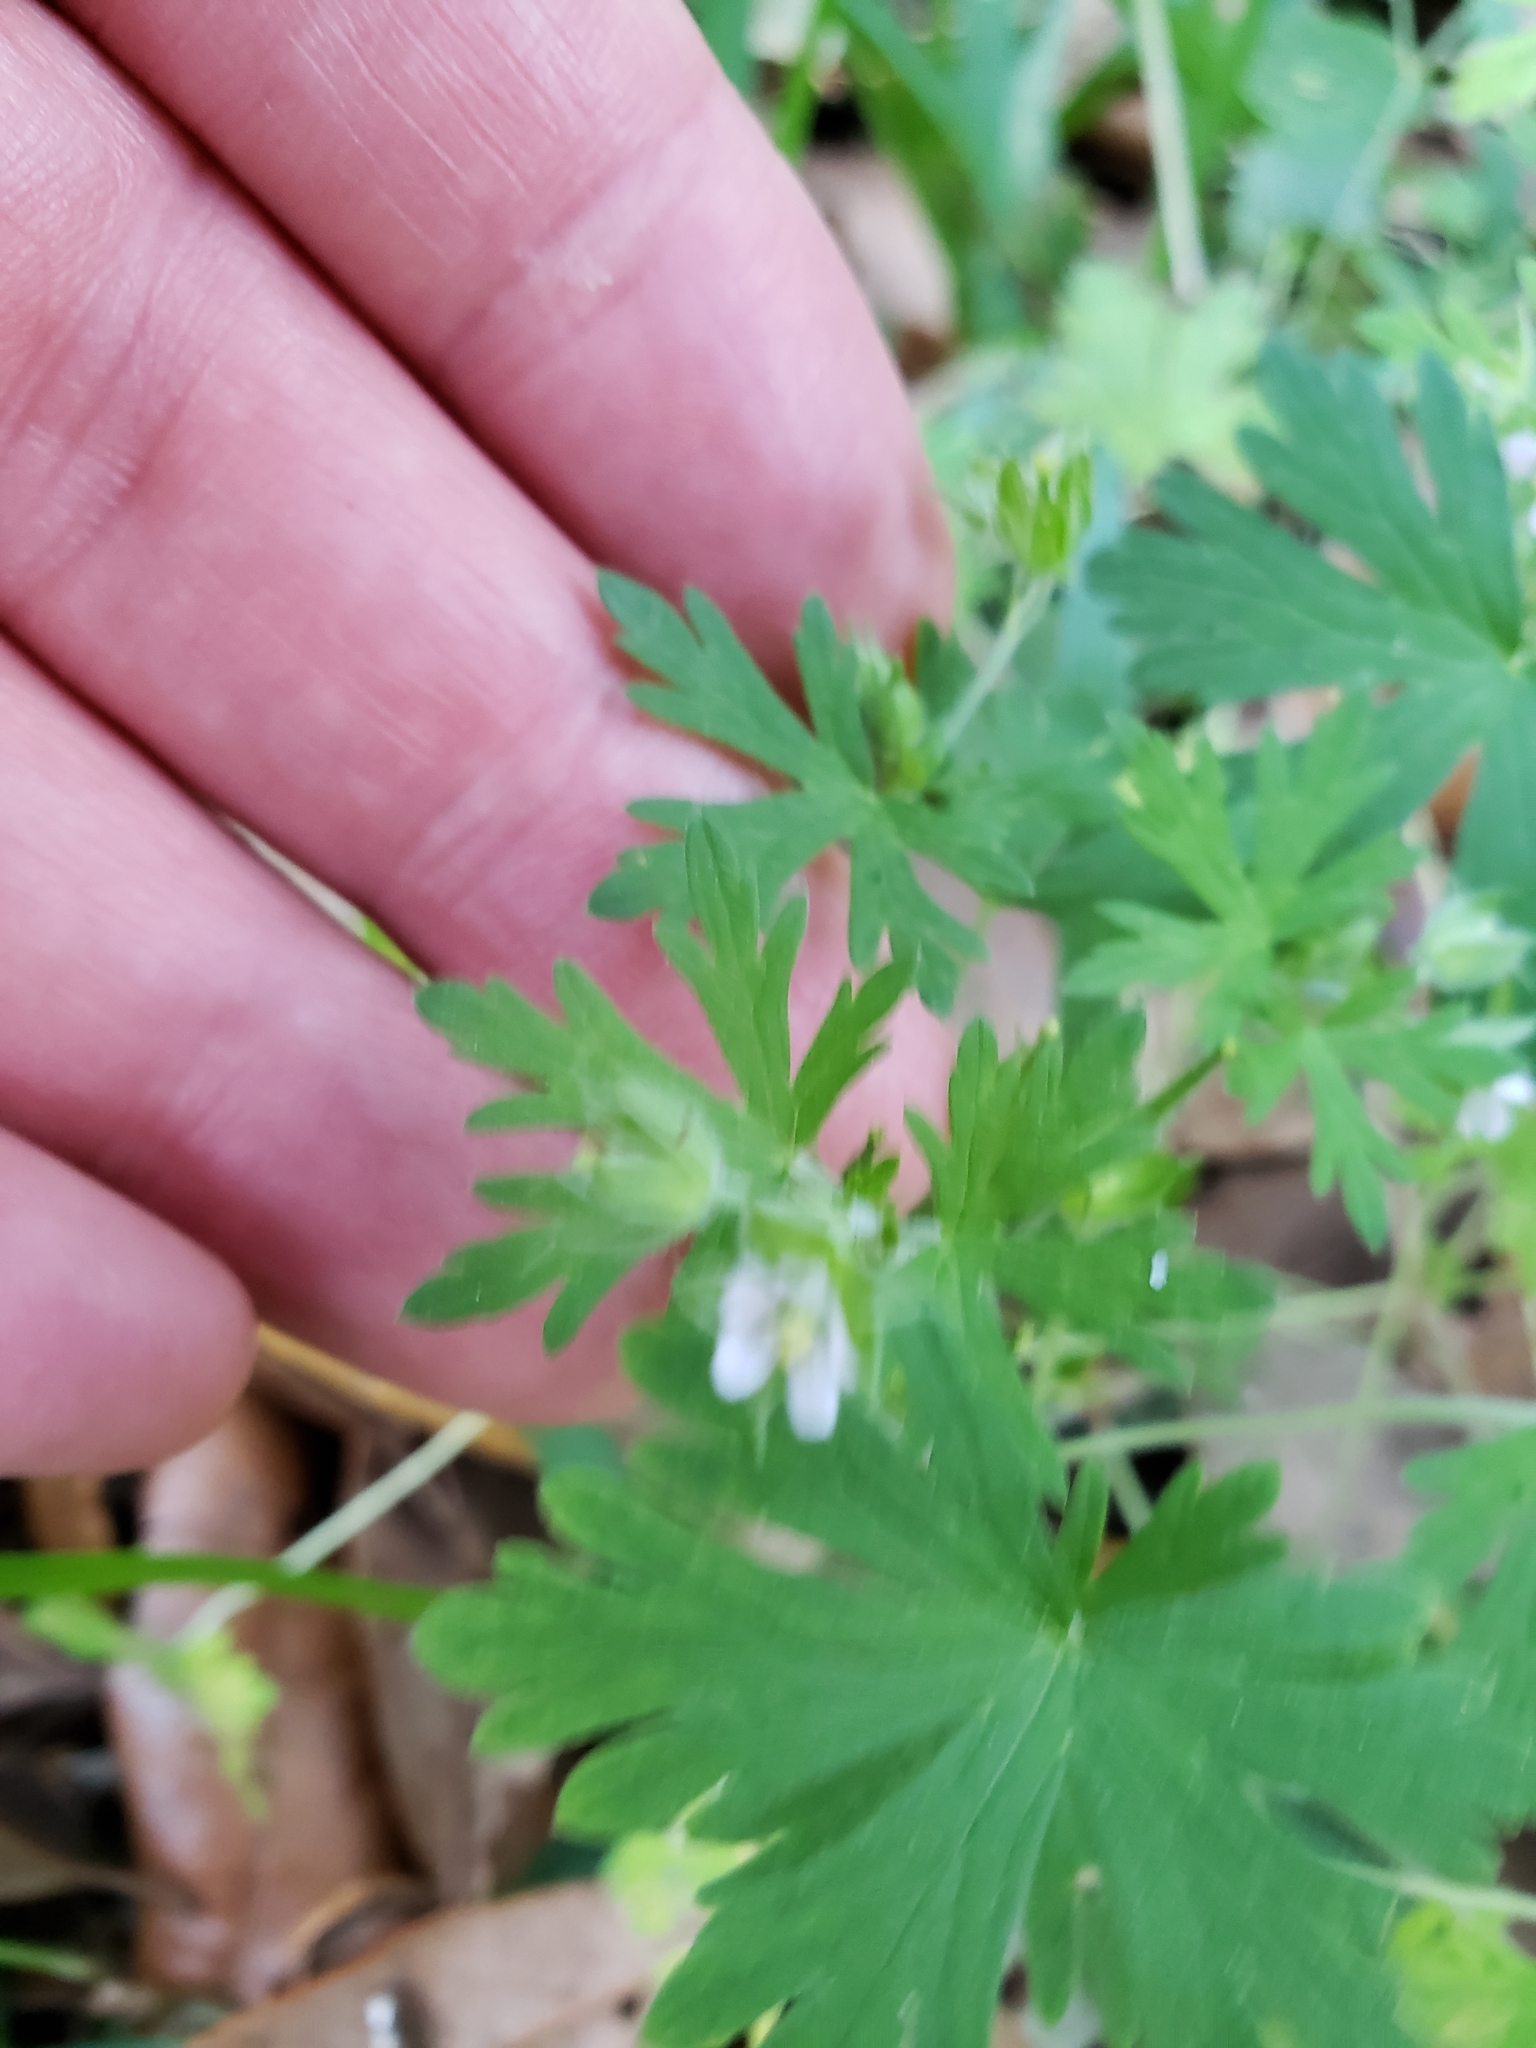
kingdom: Plantae
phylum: Tracheophyta
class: Magnoliopsida
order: Geraniales
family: Geraniaceae
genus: Geranium
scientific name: Geranium carolinianum
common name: Carolina crane's-bill
